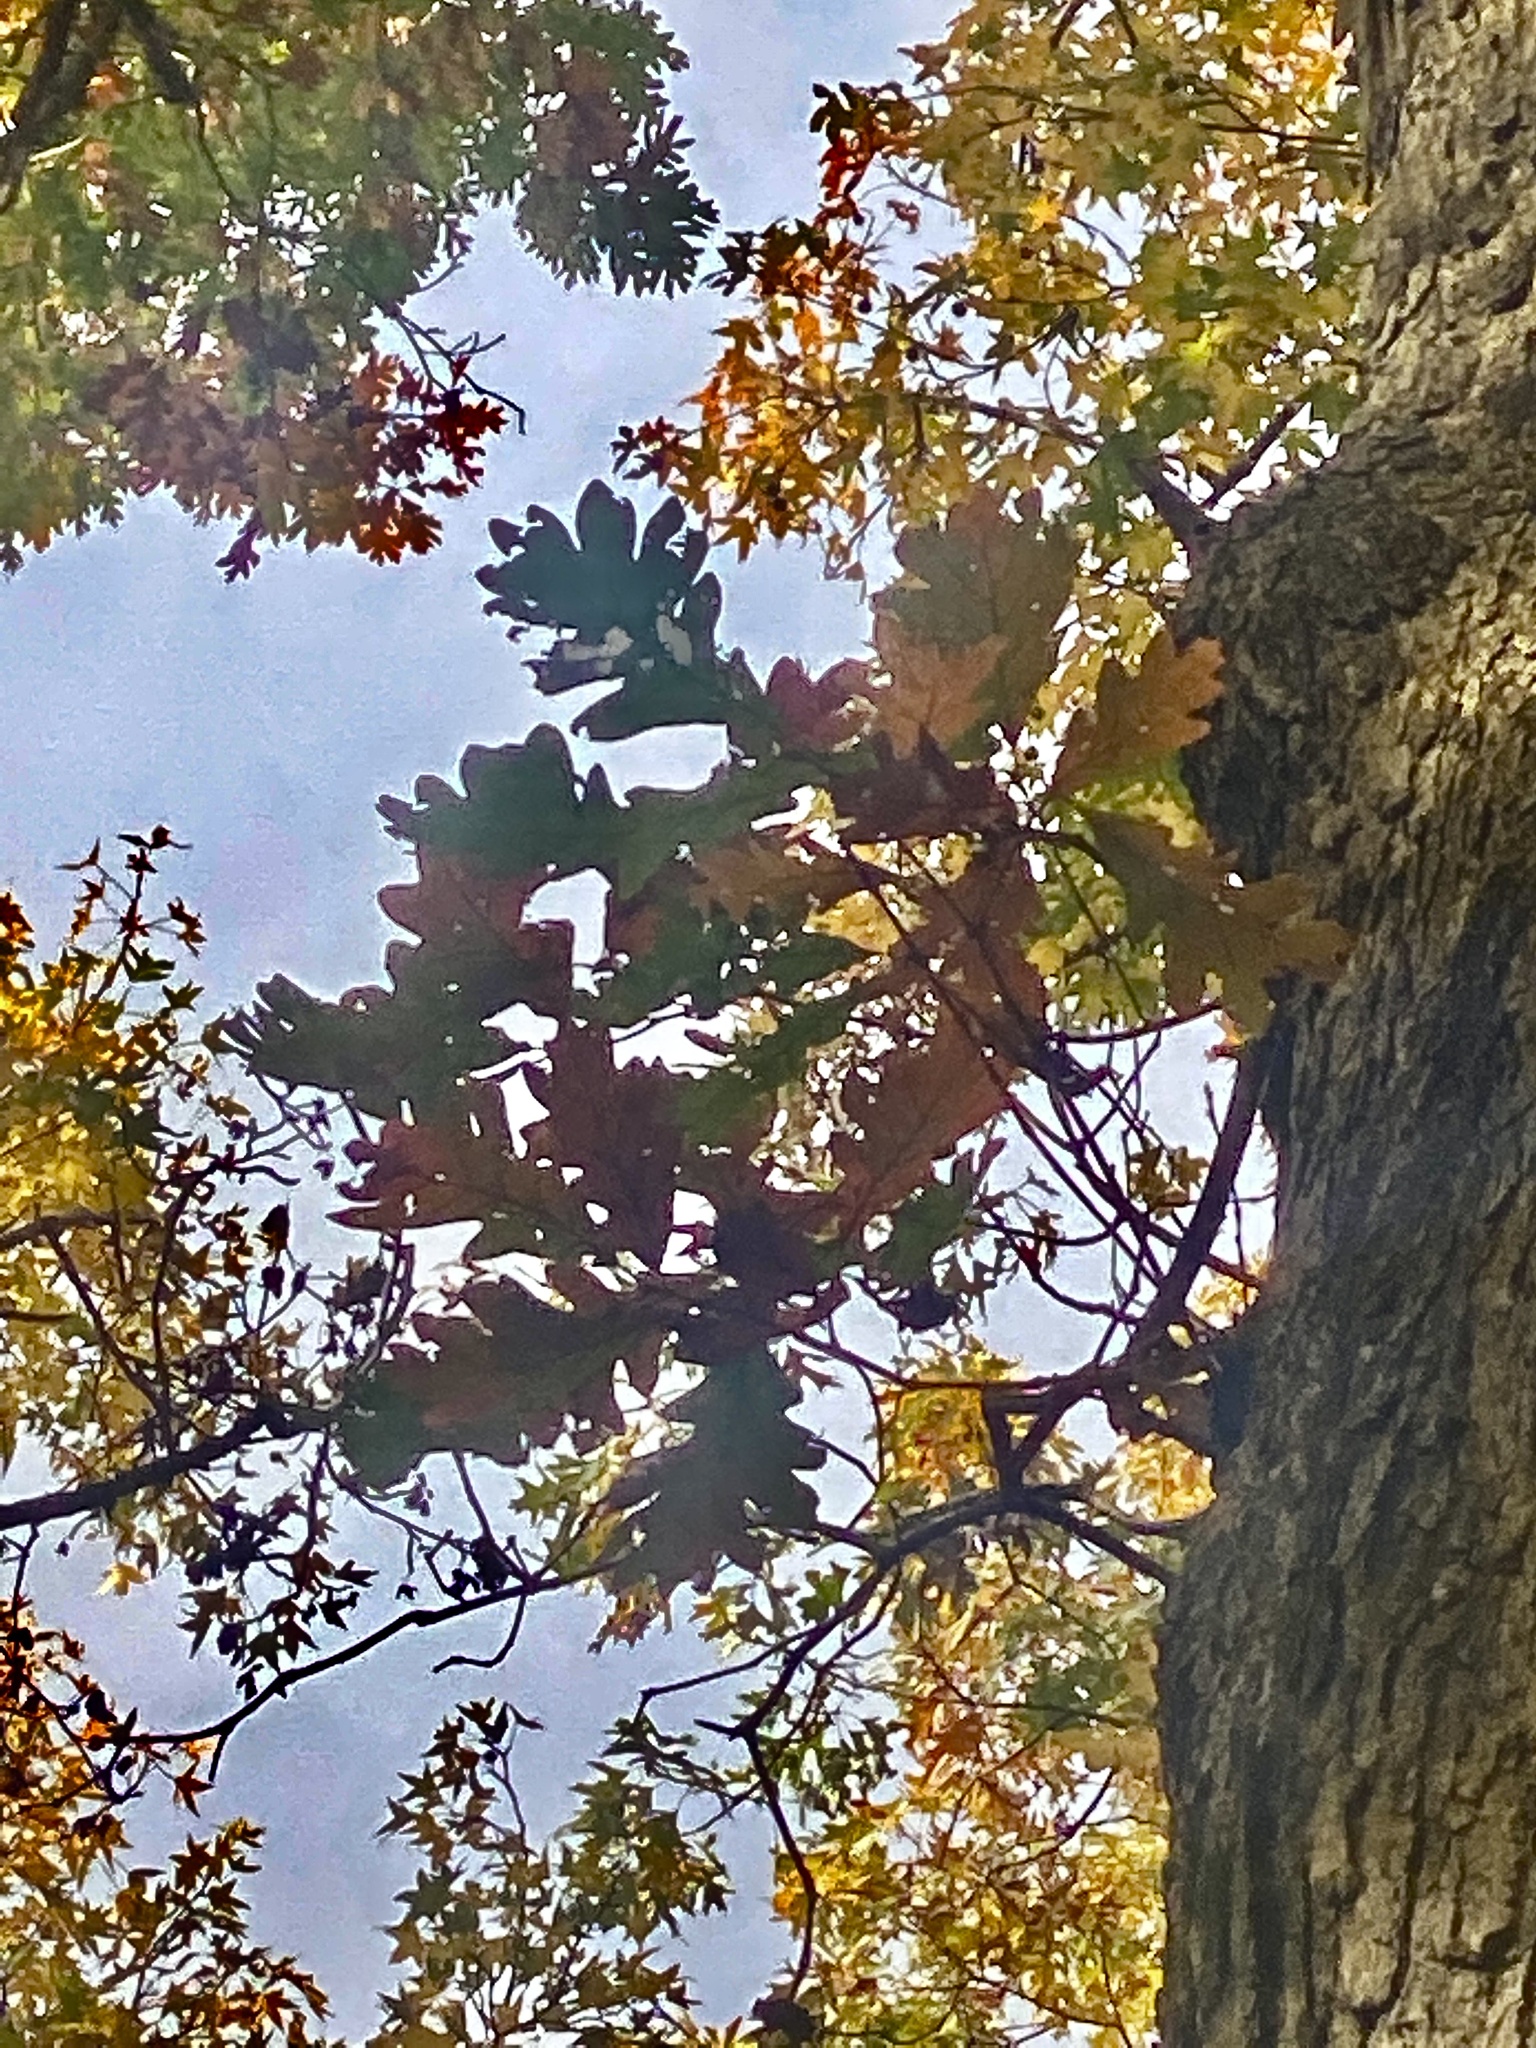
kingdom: Plantae
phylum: Tracheophyta
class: Magnoliopsida
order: Fagales
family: Fagaceae
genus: Quercus
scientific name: Quercus alba
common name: White oak
